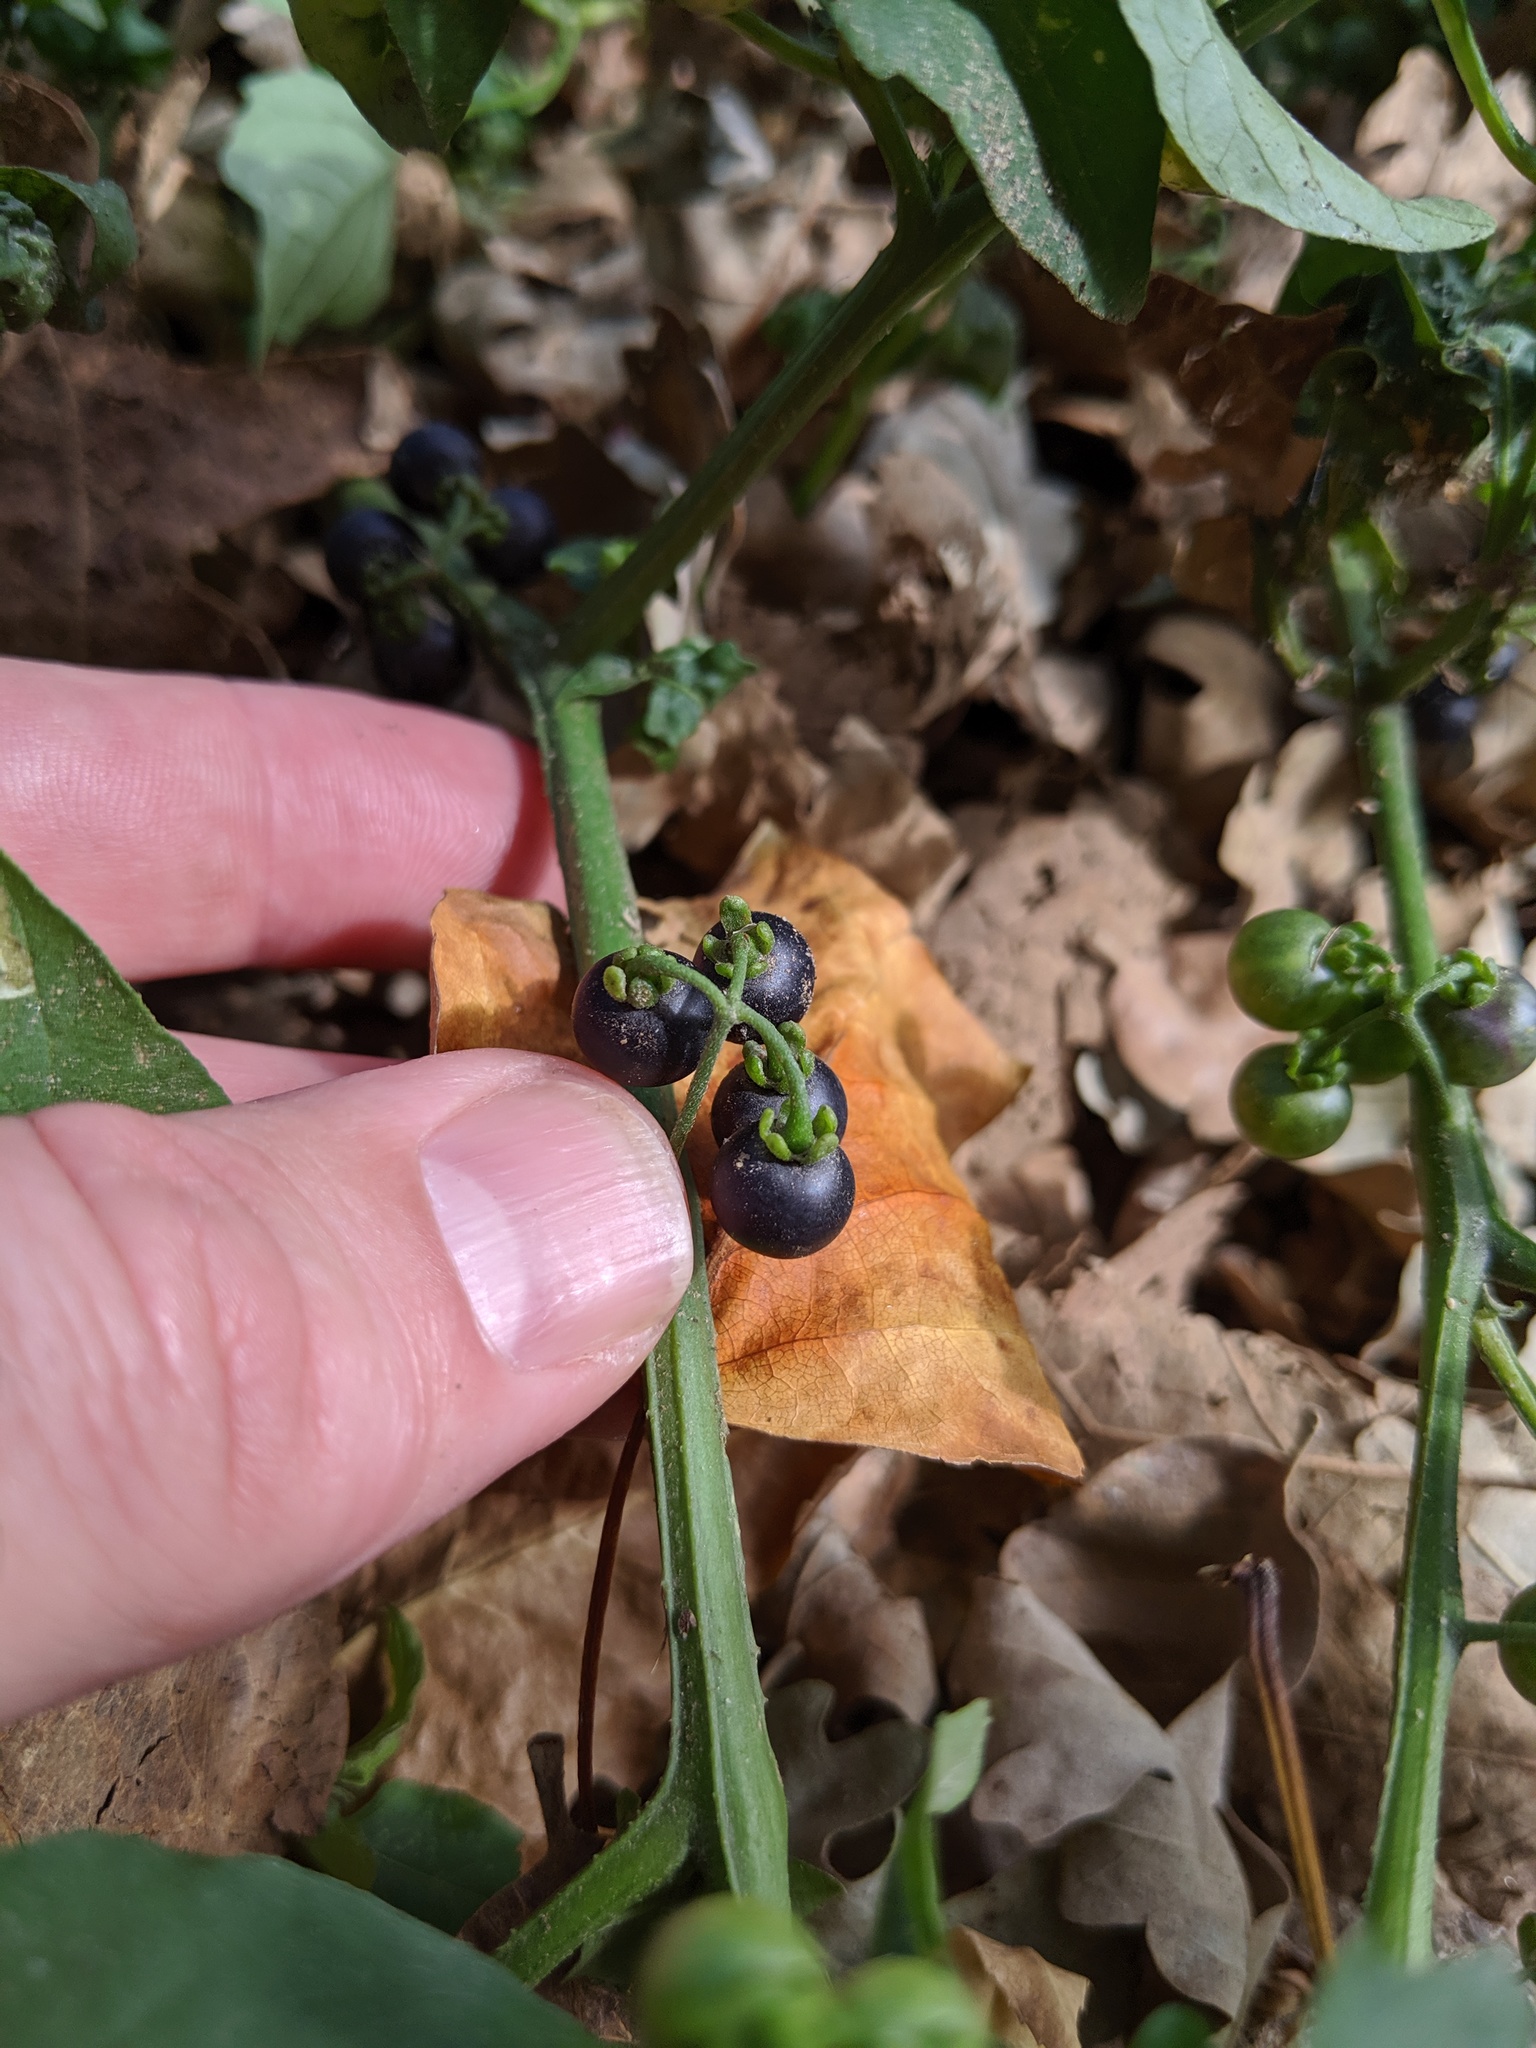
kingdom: Plantae
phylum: Tracheophyta
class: Magnoliopsida
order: Solanales
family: Solanaceae
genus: Solanum
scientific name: Solanum americanum
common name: American black nightshade
